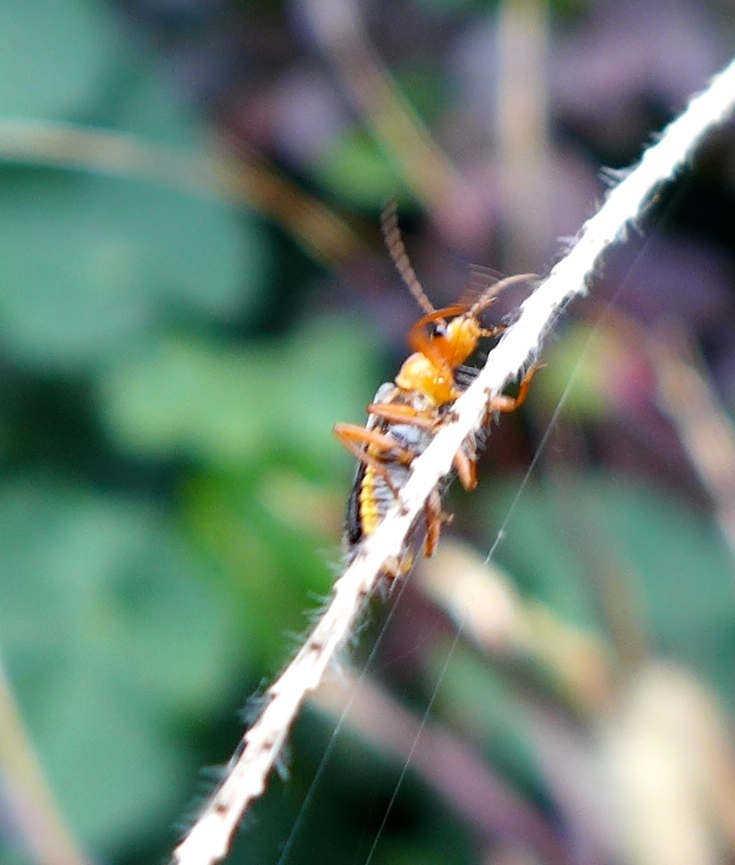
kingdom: Animalia
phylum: Arthropoda
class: Insecta
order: Coleoptera
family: Cantharidae
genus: Podabrus
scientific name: Podabrus pruinosus
